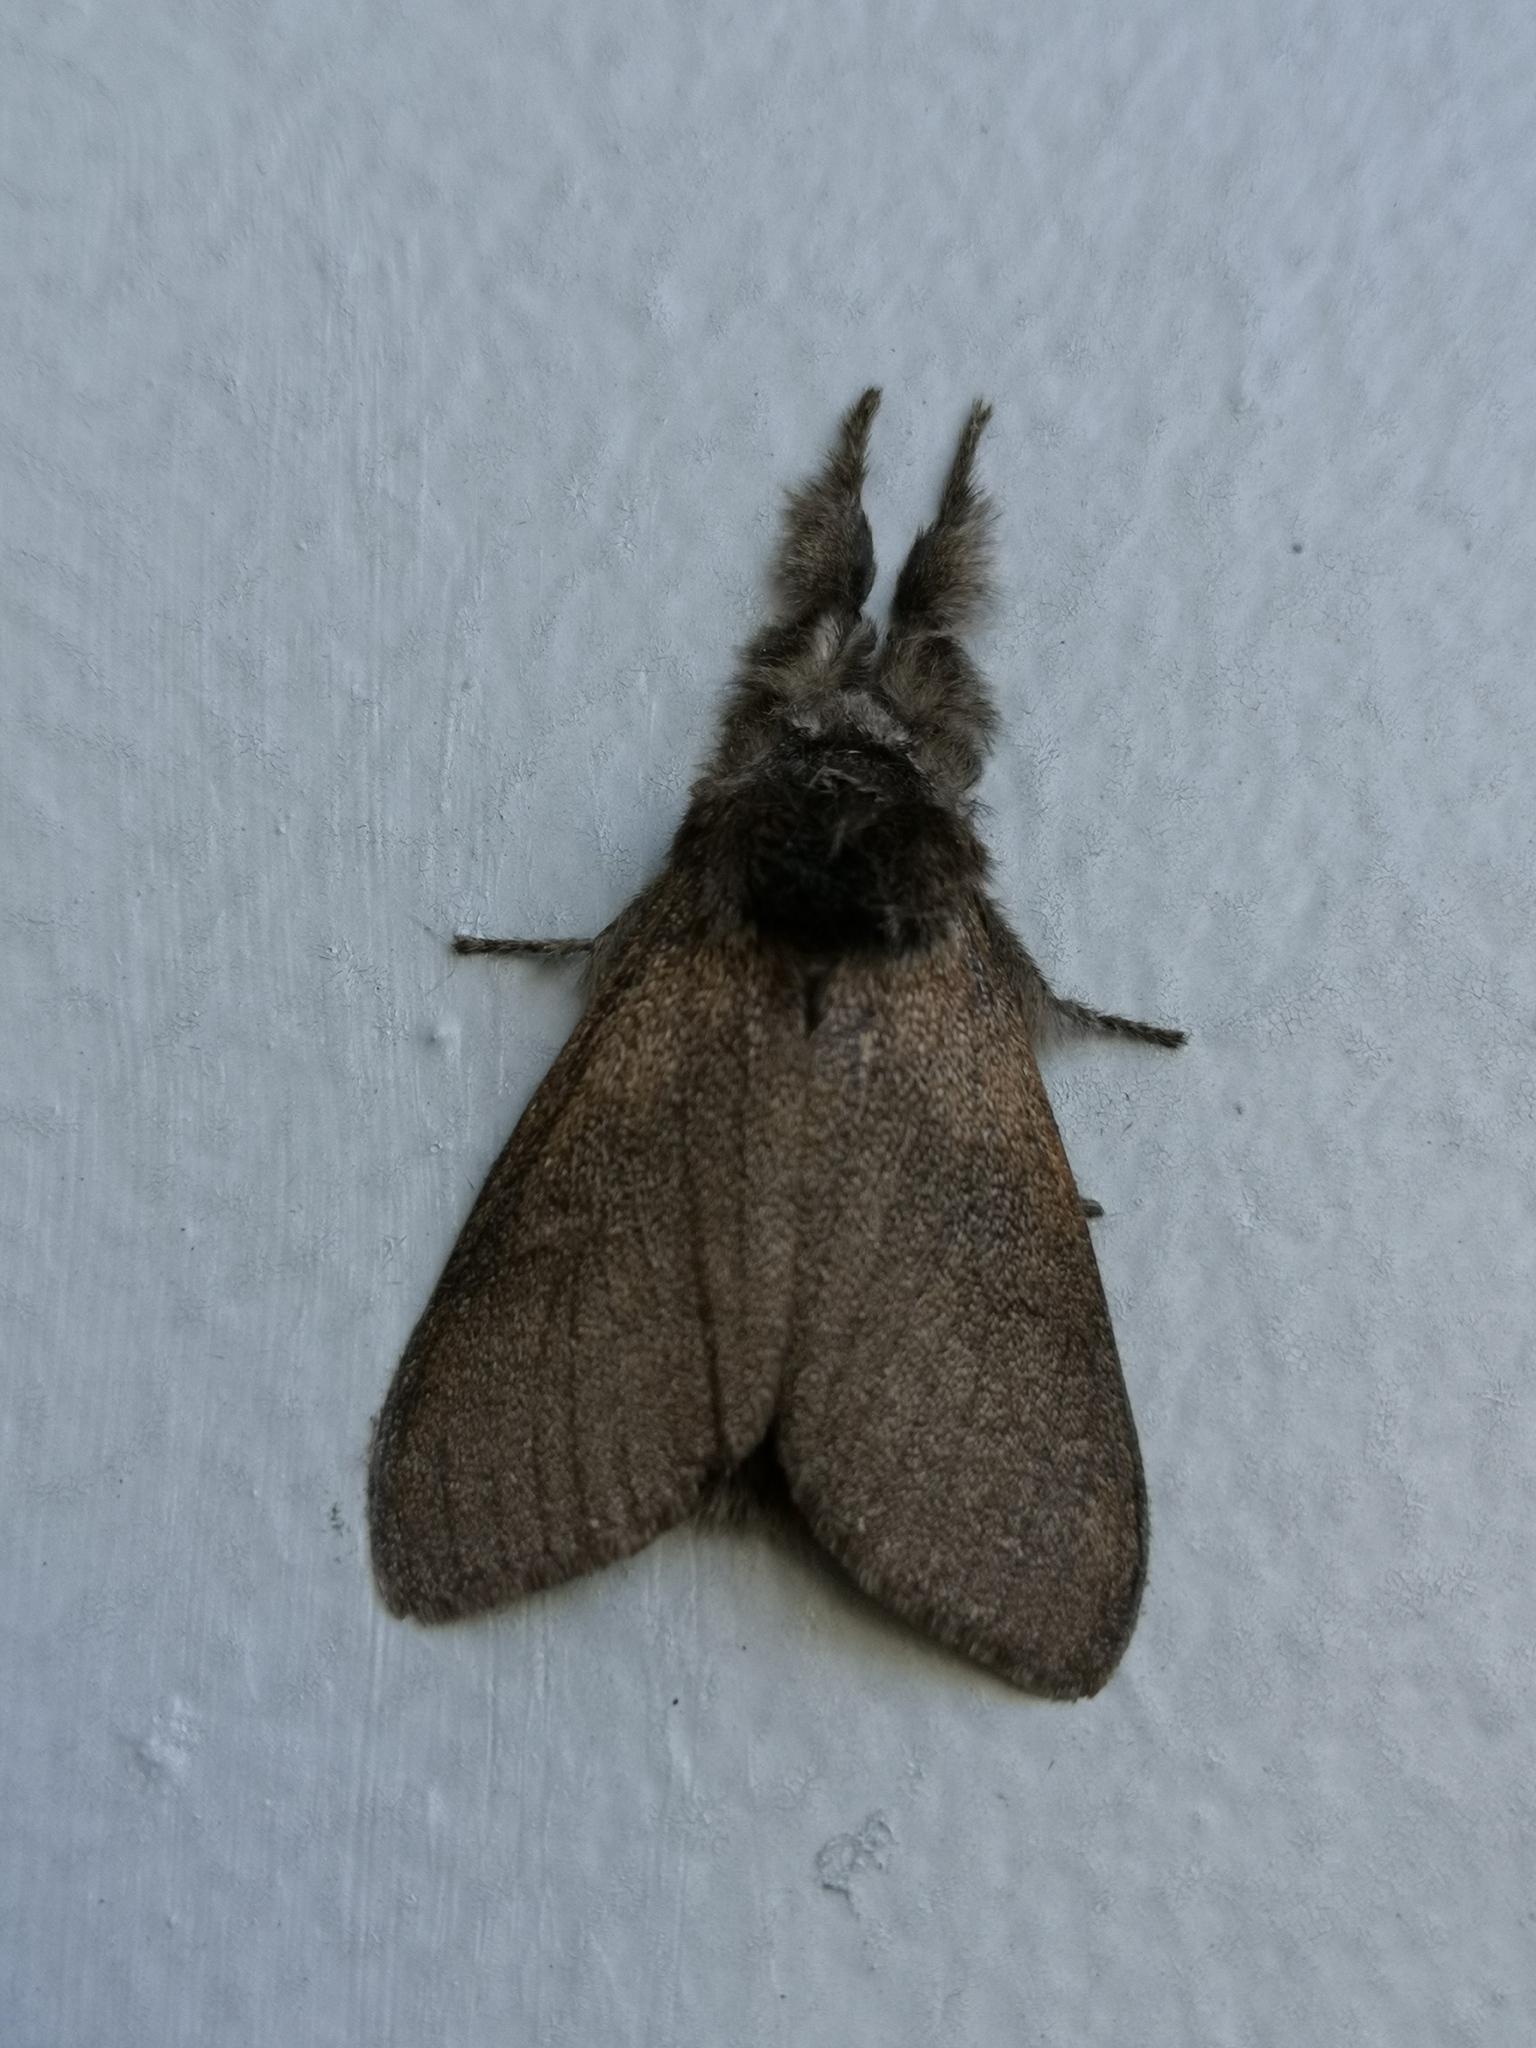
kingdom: Animalia
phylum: Arthropoda
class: Insecta
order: Lepidoptera
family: Erebidae
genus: Calliteara
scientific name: Calliteara pudibunda
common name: Pale tussock
